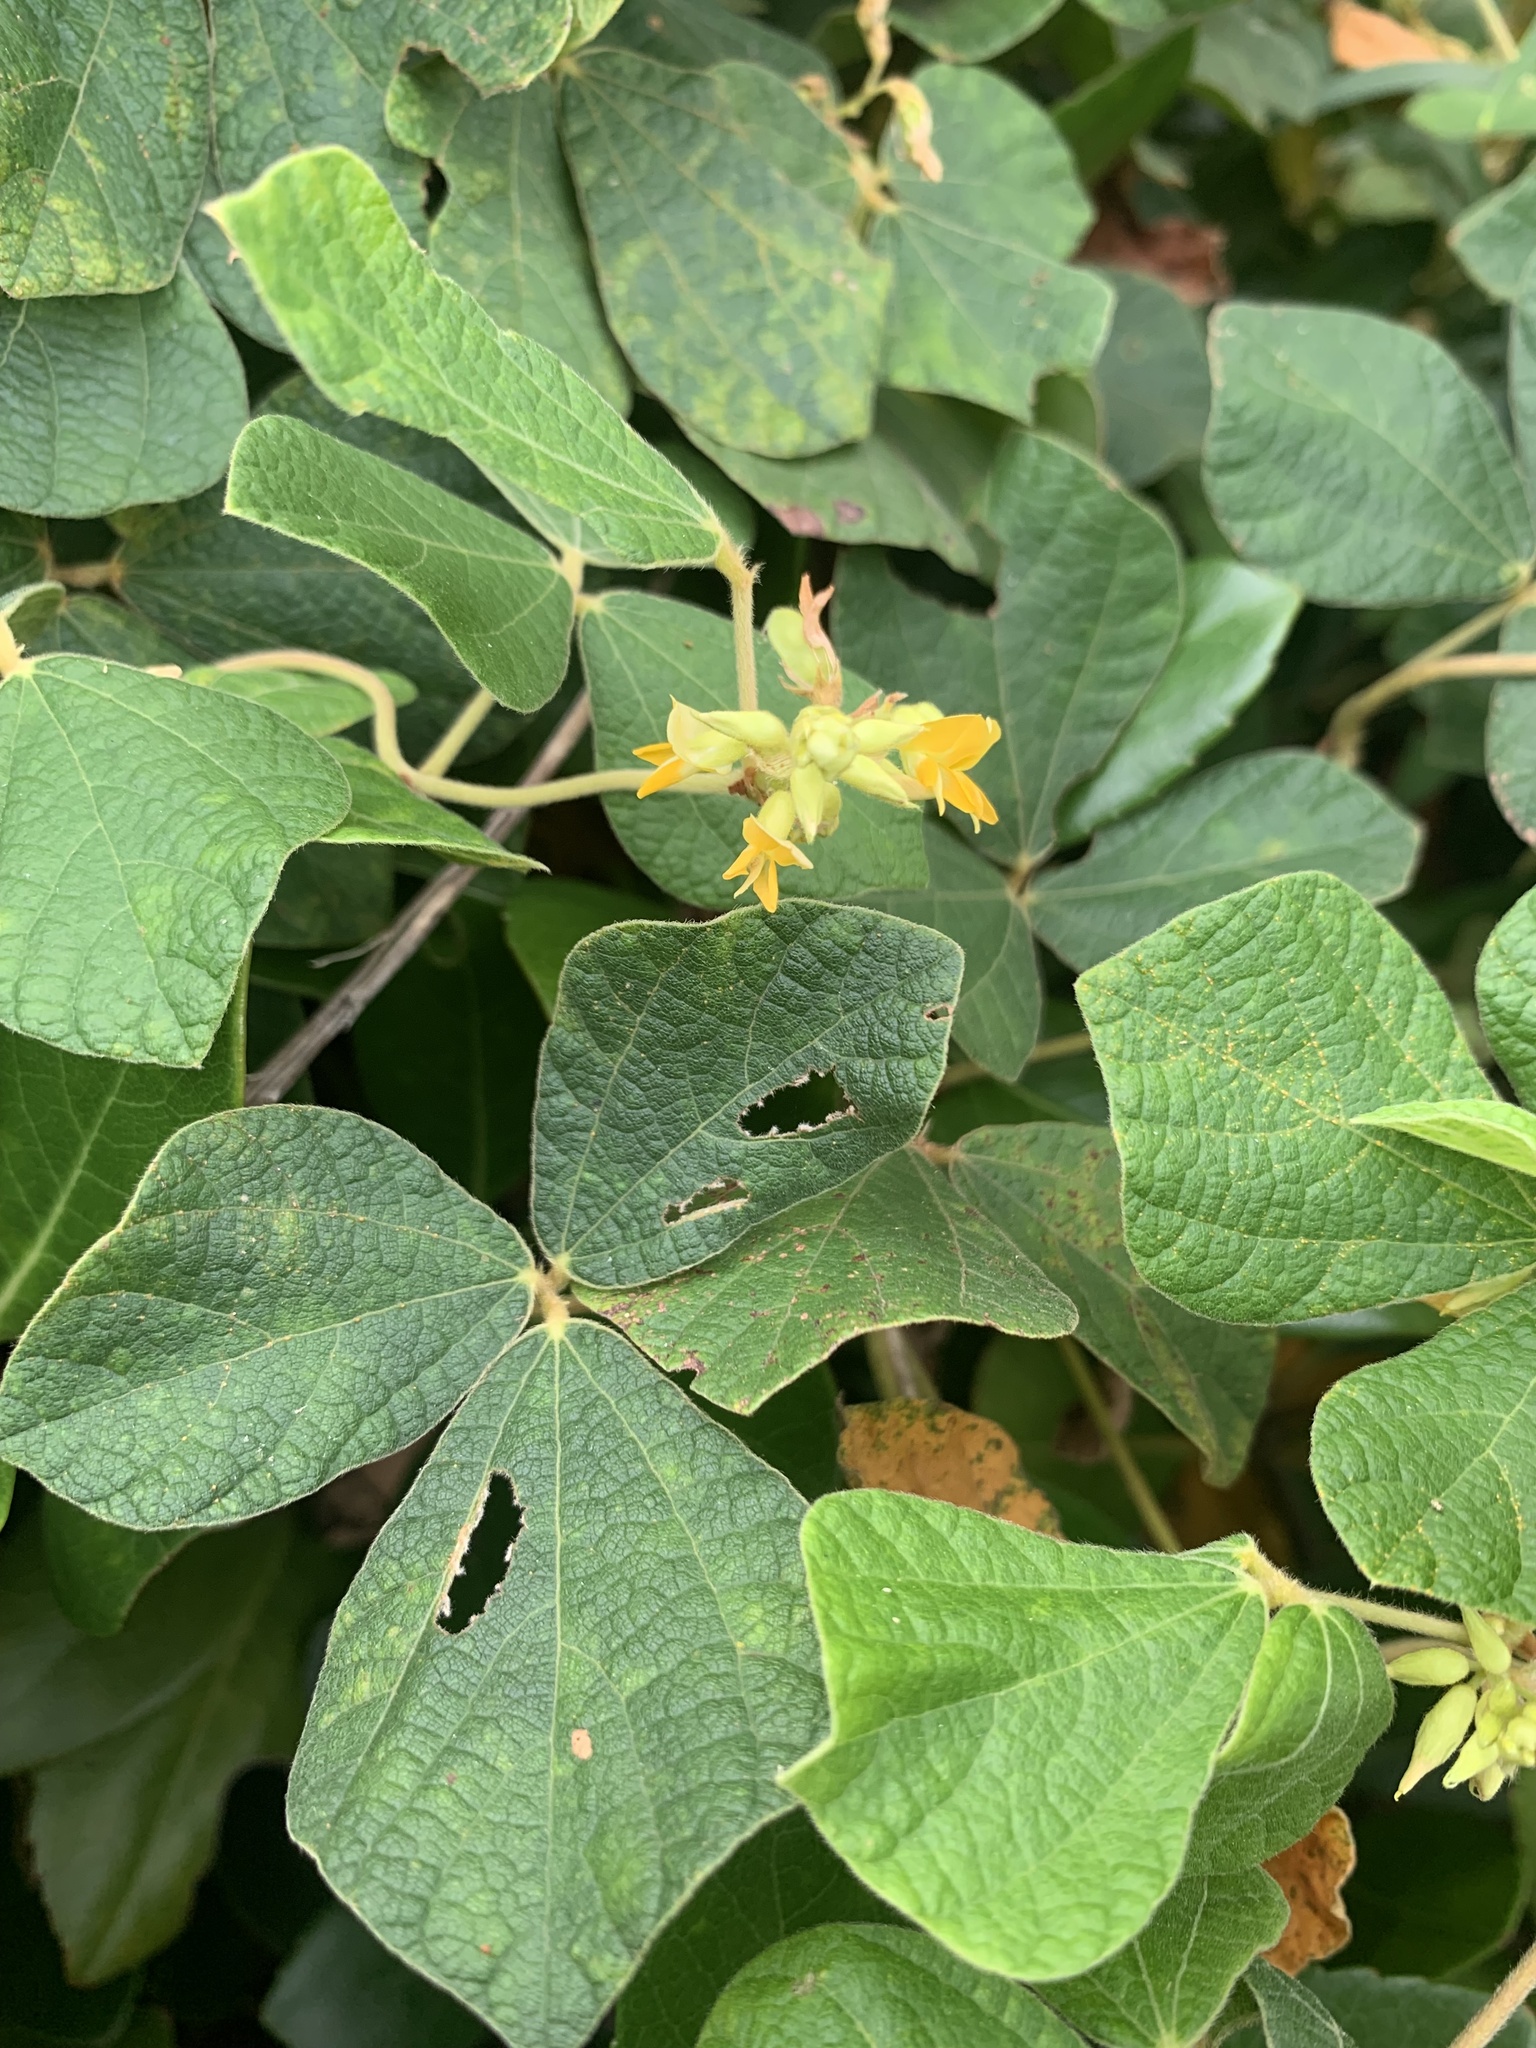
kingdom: Plantae
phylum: Tracheophyta
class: Magnoliopsida
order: Fabales
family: Fabaceae
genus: Rhynchosia
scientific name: Rhynchosia volubilis
